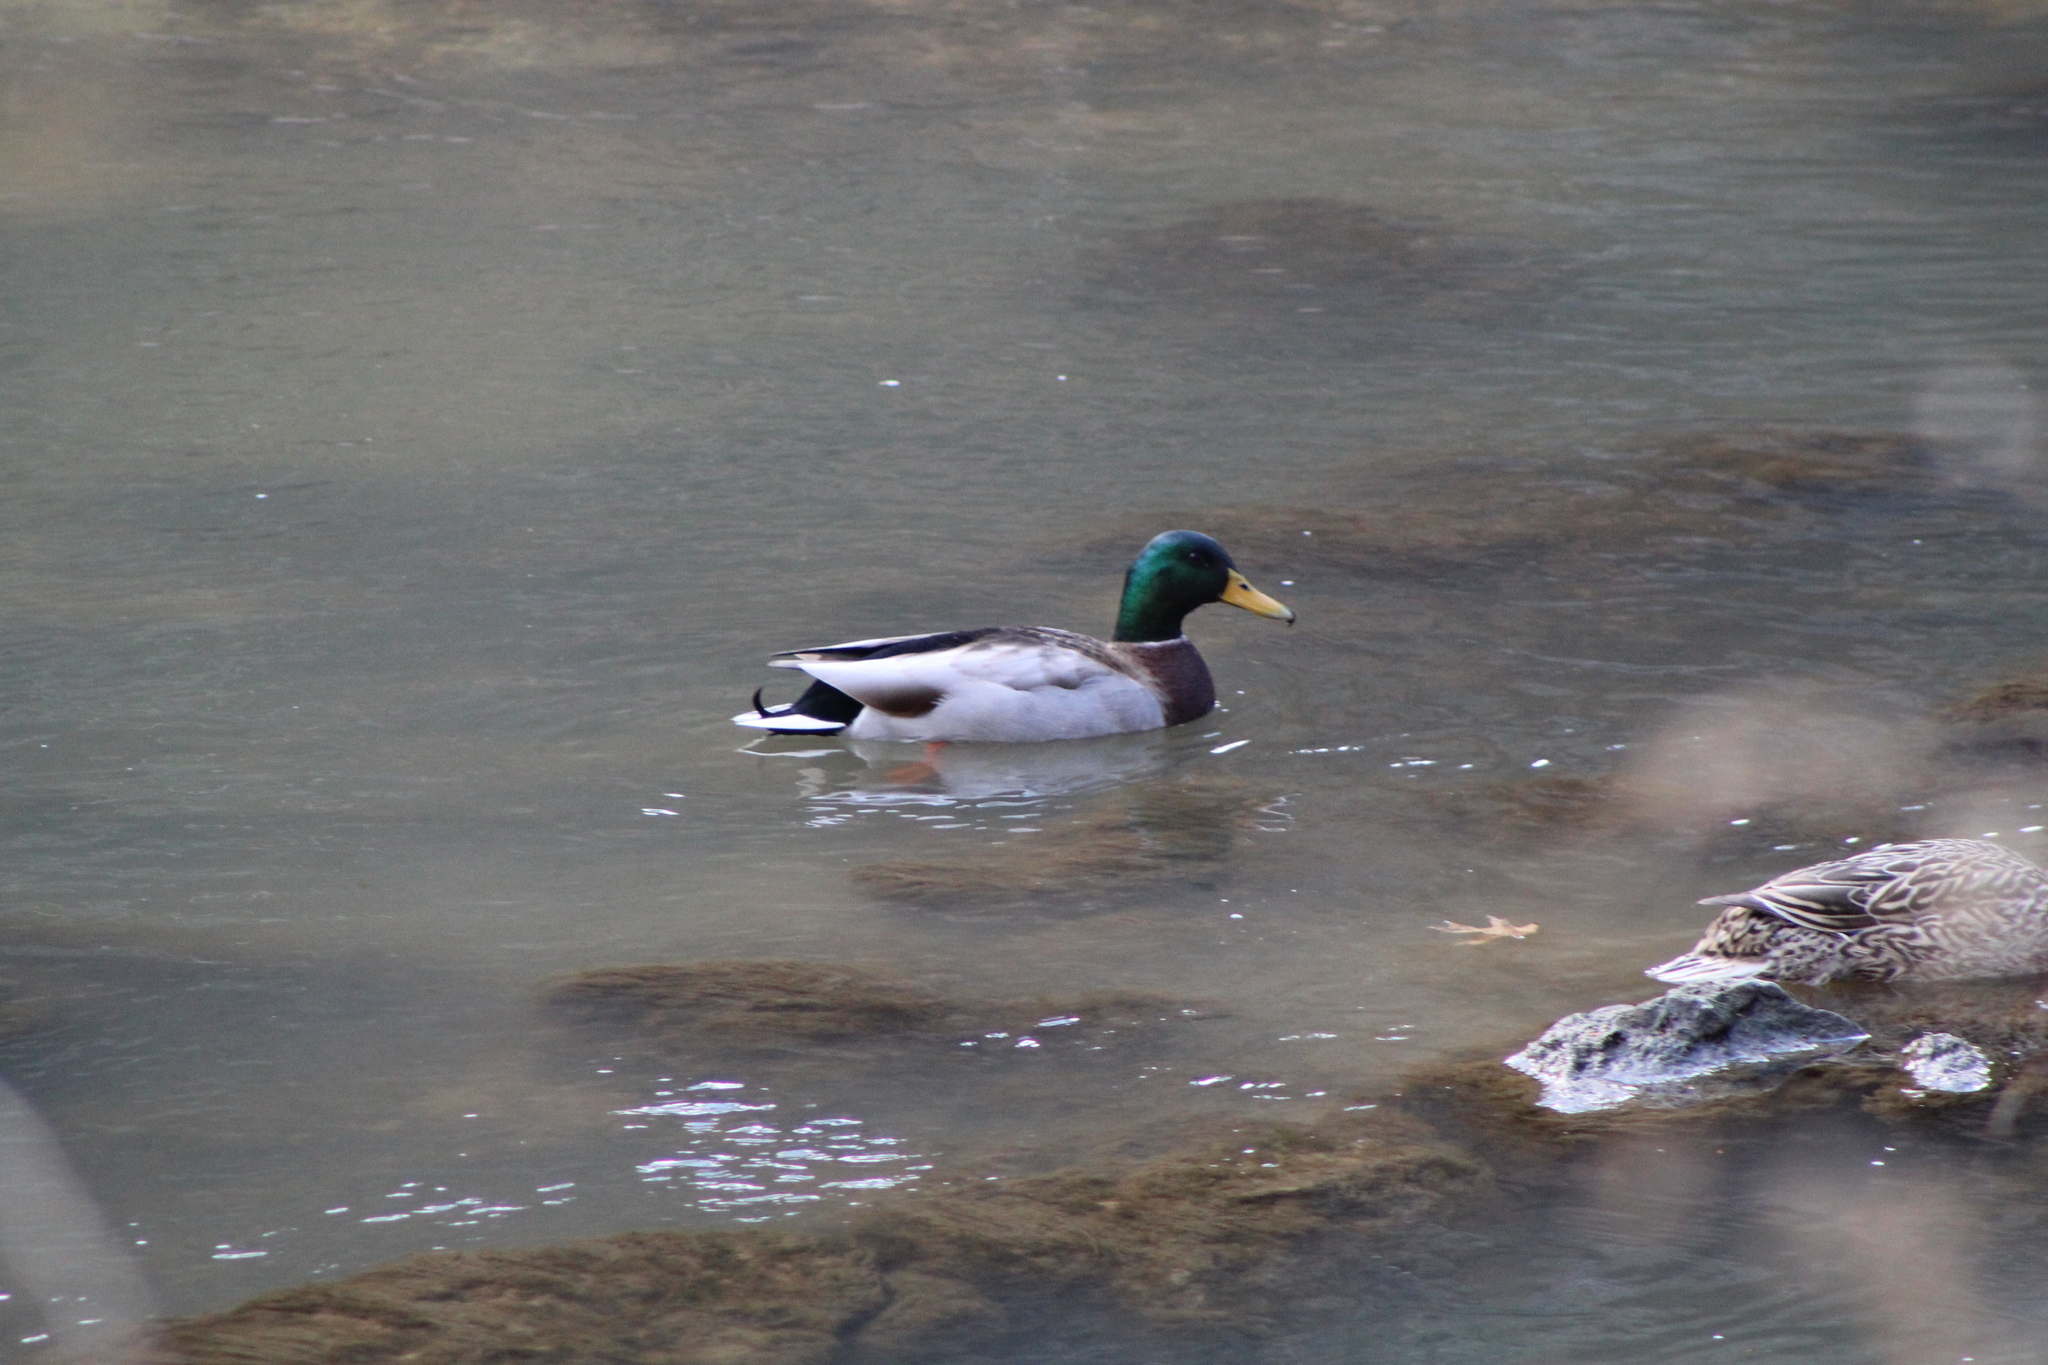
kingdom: Animalia
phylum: Chordata
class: Aves
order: Anseriformes
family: Anatidae
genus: Anas
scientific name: Anas platyrhynchos
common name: Mallard
